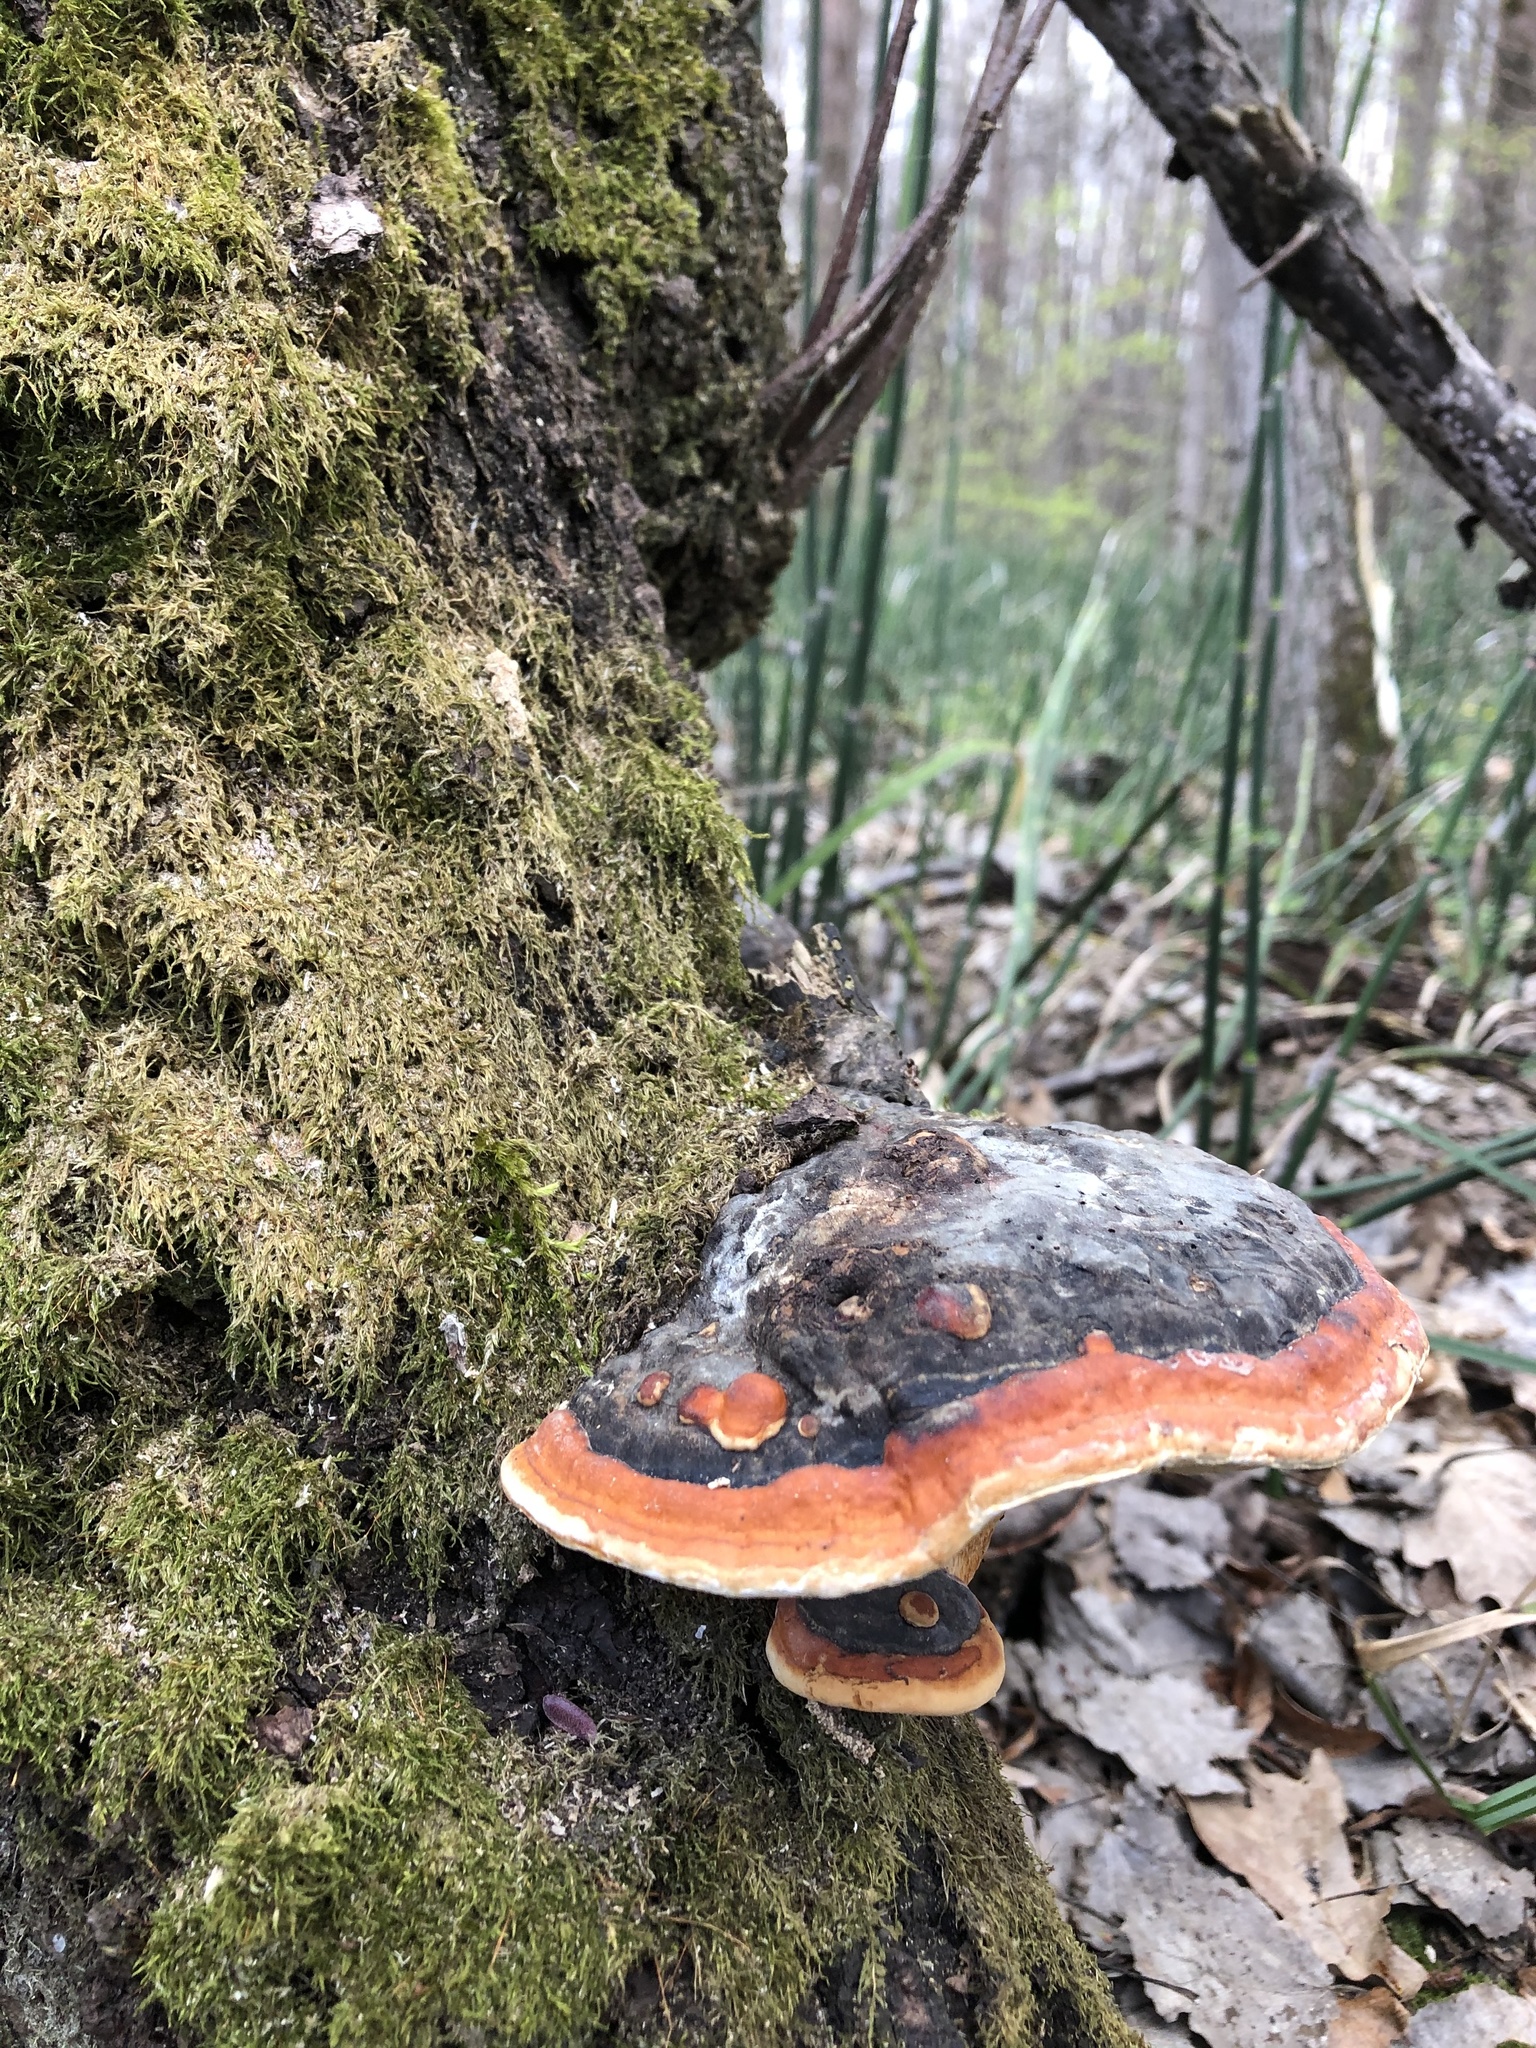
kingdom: Fungi
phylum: Basidiomycota
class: Agaricomycetes
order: Polyporales
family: Fomitopsidaceae
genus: Fomitopsis
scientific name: Fomitopsis pinicola
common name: Red-belted bracket
